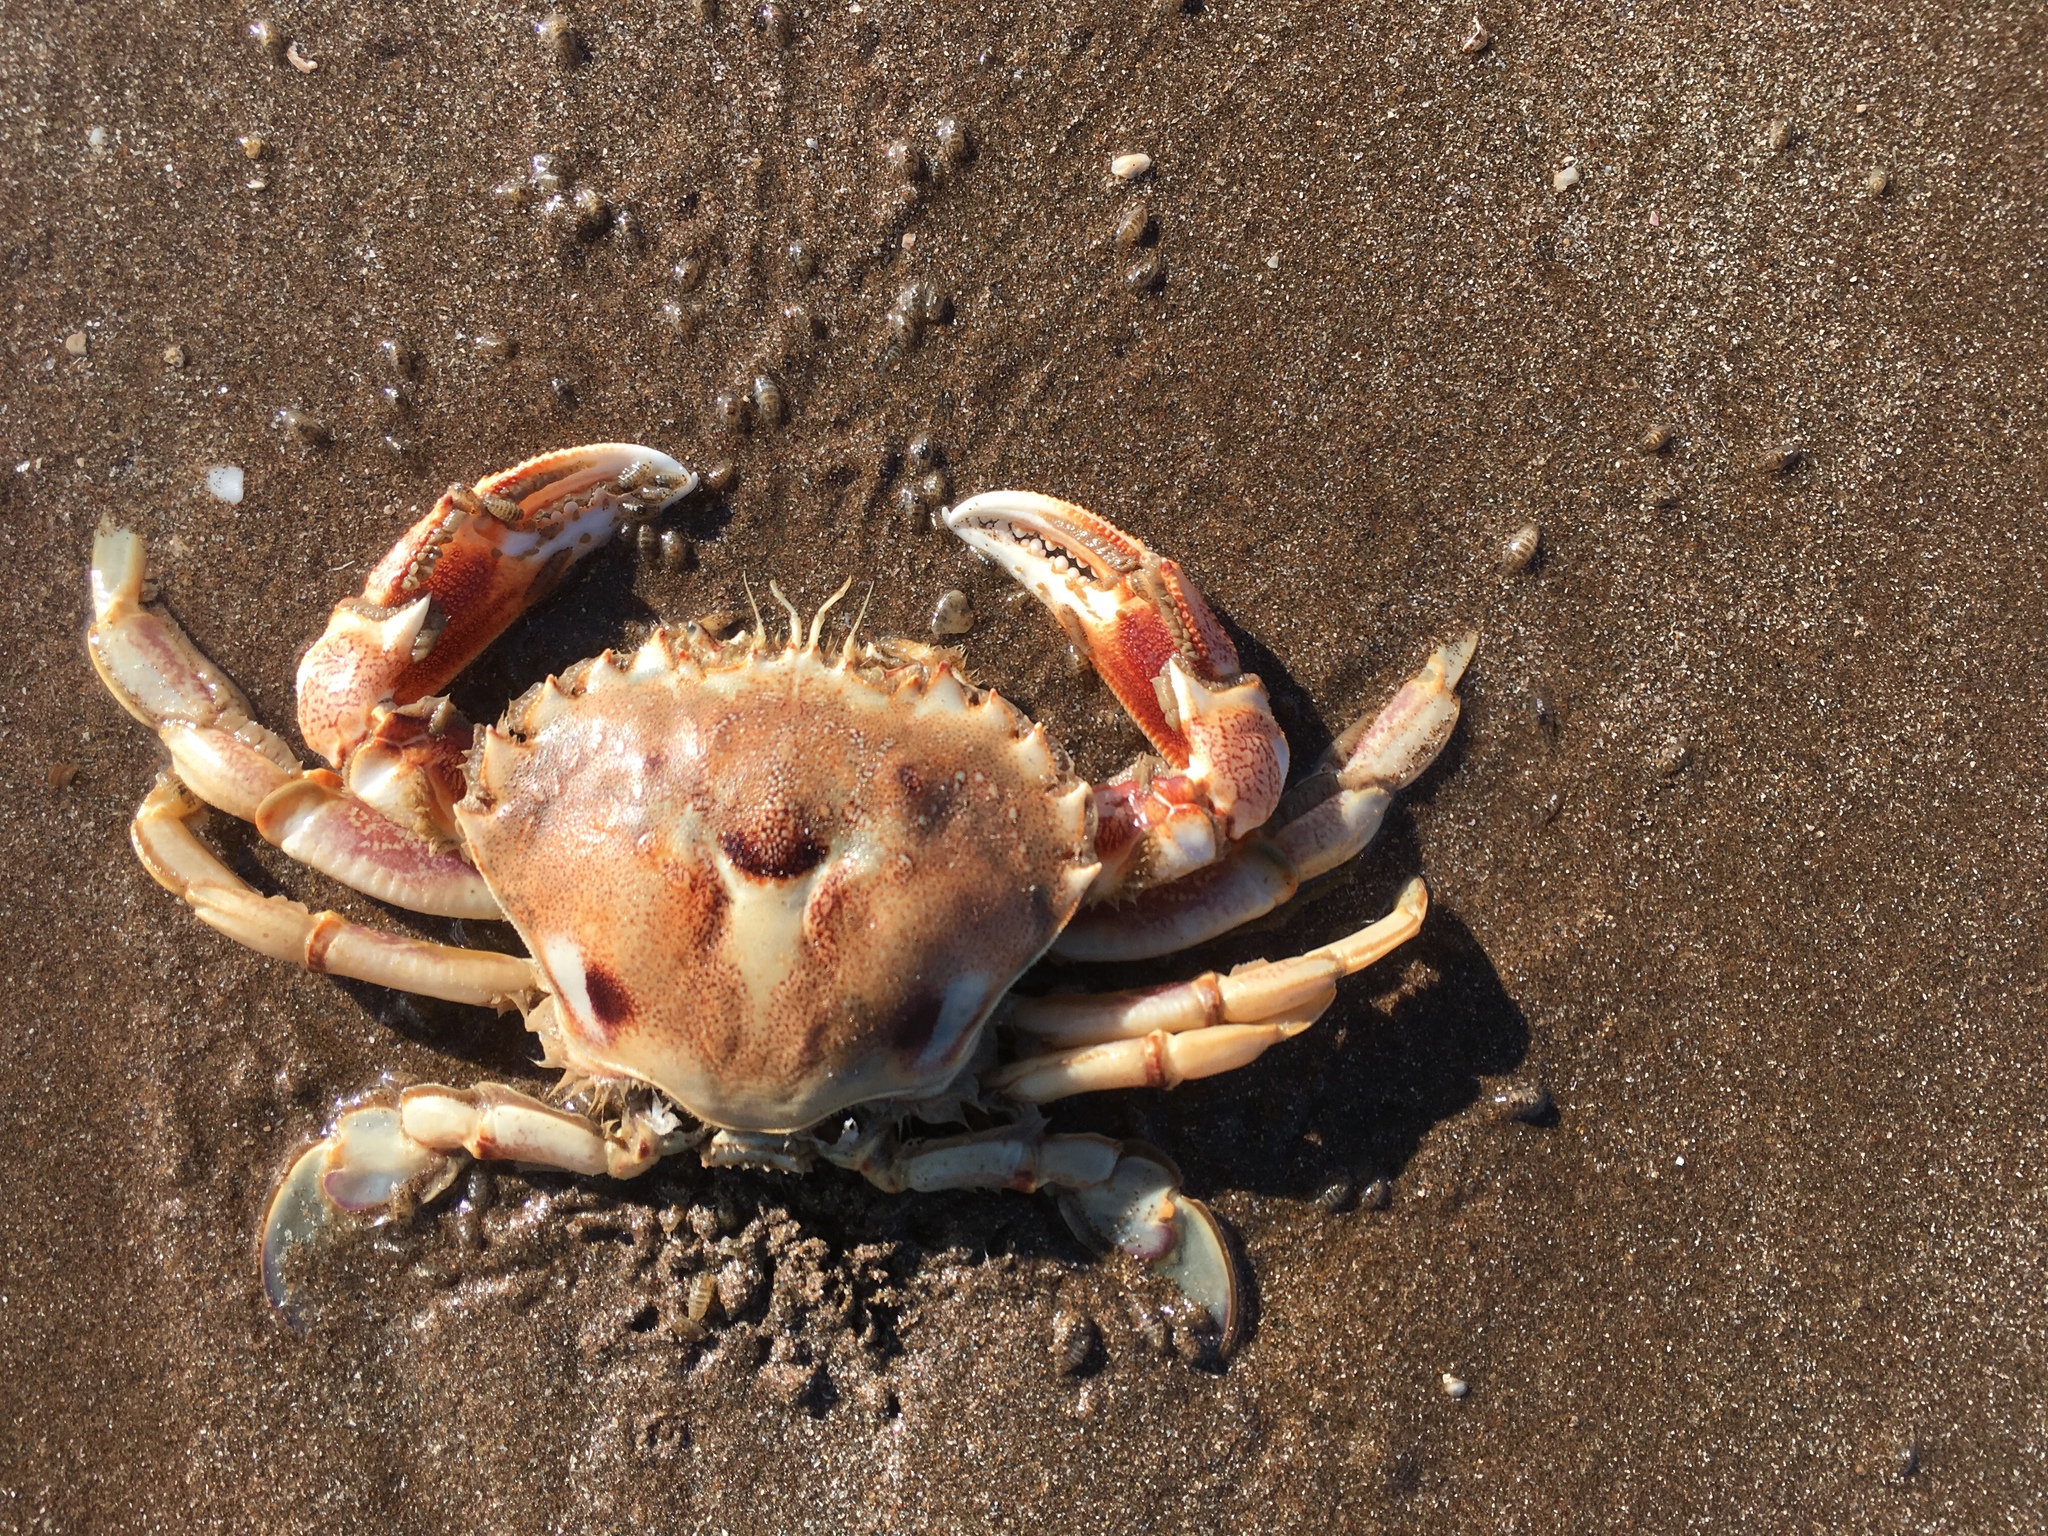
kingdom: Animalia
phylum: Arthropoda
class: Malacostraca
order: Decapoda
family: Ovalipidae
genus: Ovalipes
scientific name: Ovalipes trimaculatus
